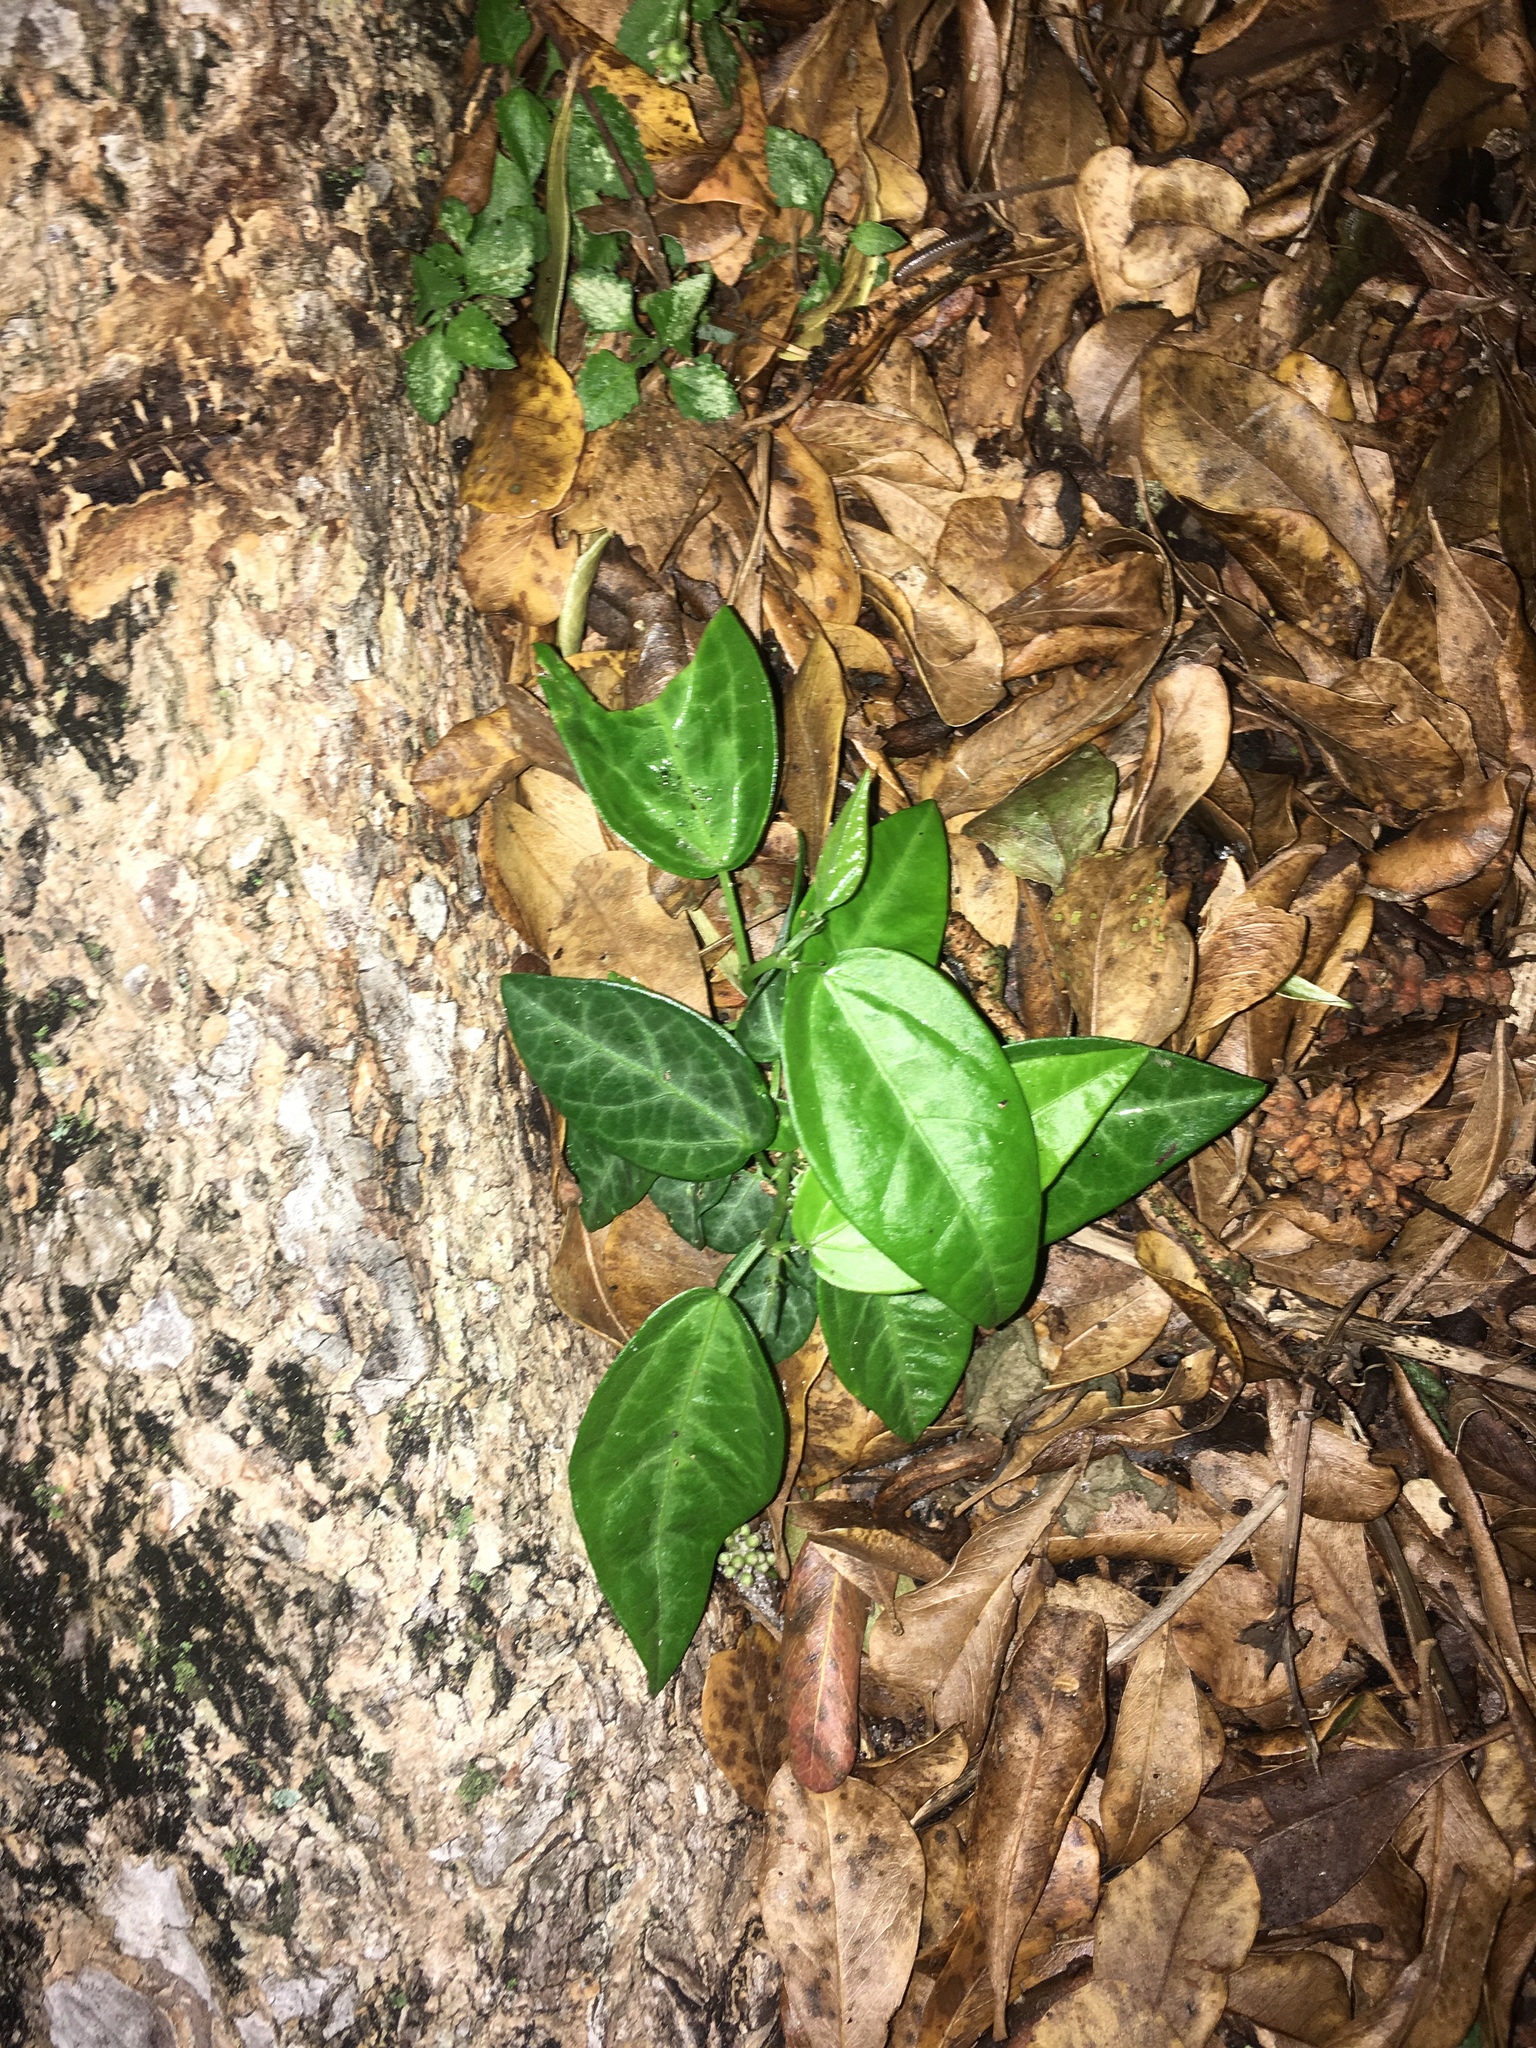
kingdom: Plantae
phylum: Tracheophyta
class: Magnoliopsida
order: Malpighiales
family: Passifloraceae
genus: Passiflora
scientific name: Passiflora pallida
